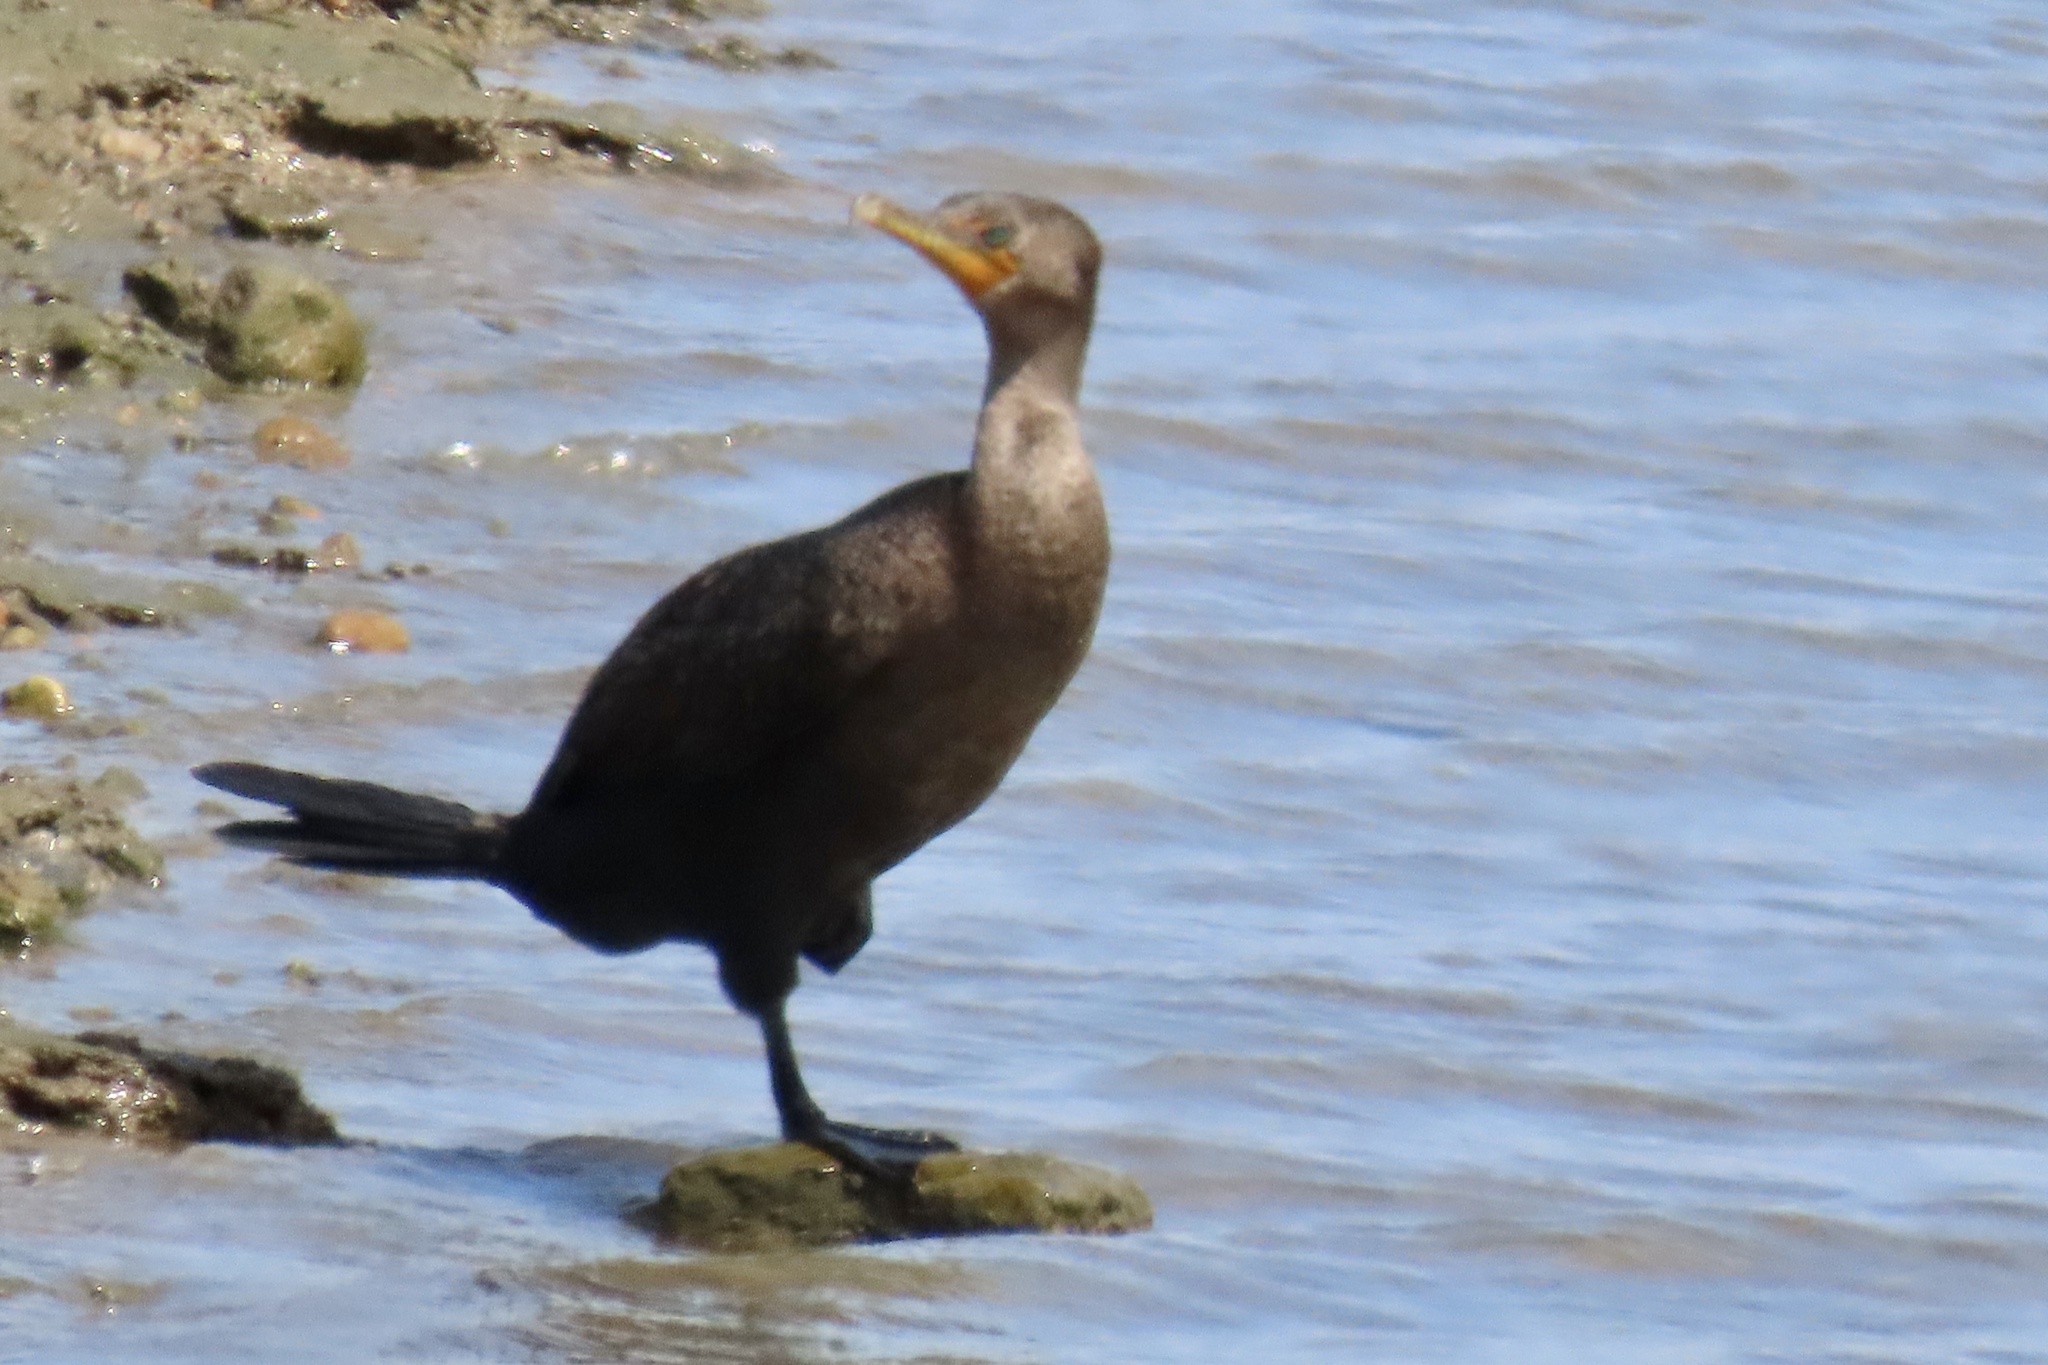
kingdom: Animalia
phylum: Chordata
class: Aves
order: Suliformes
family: Phalacrocoracidae
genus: Phalacrocorax
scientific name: Phalacrocorax auritus
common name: Double-crested cormorant
